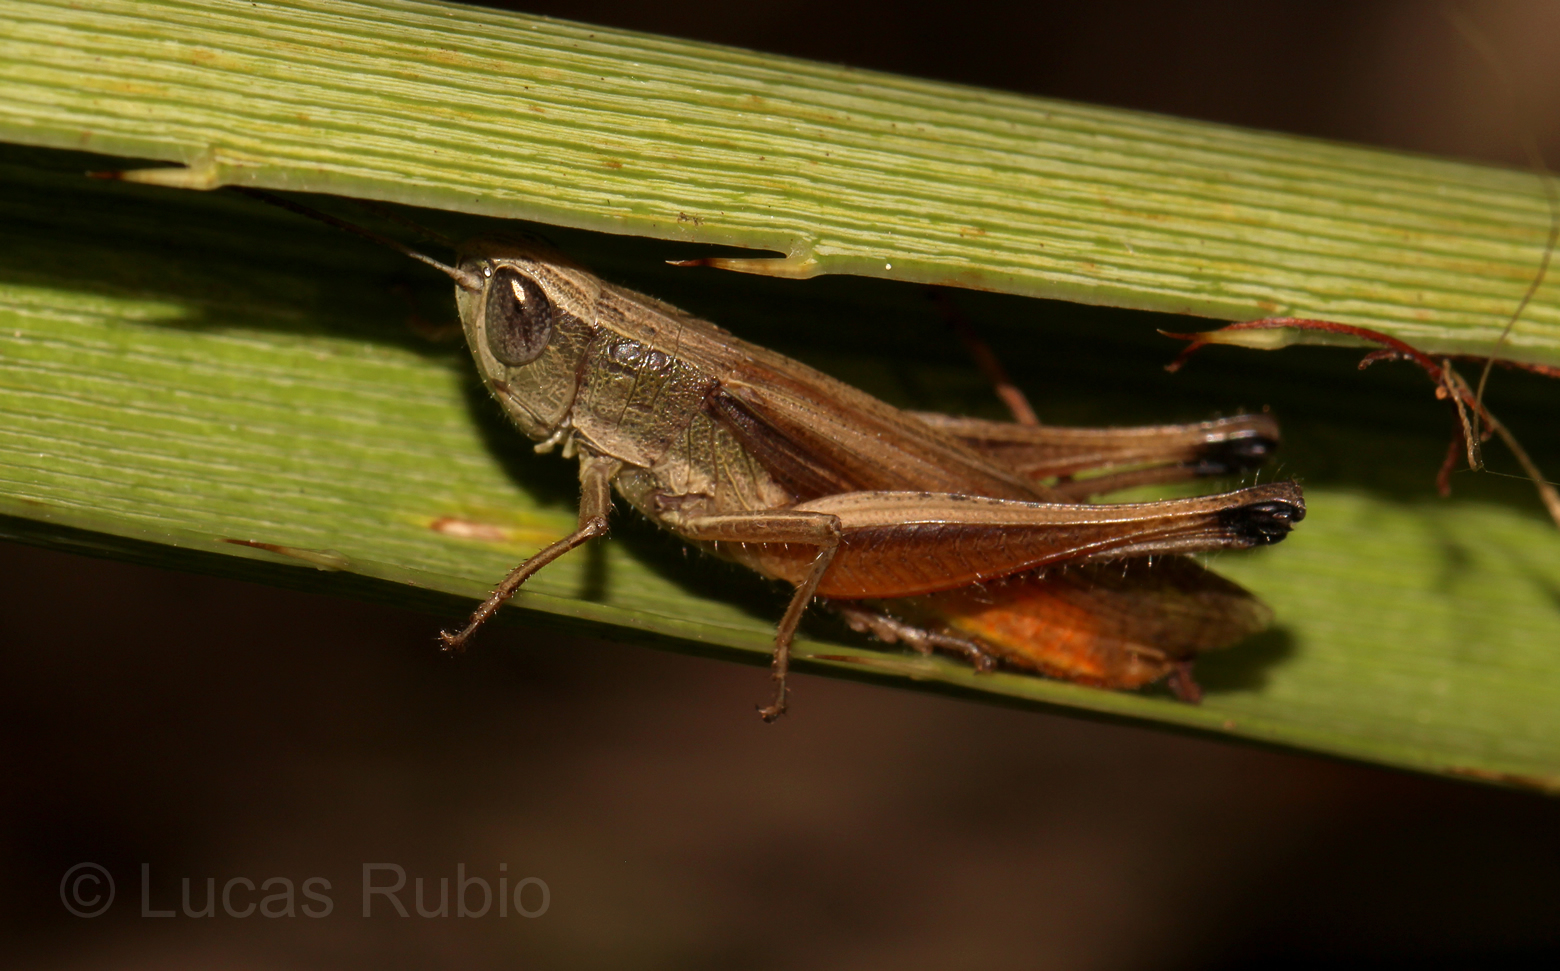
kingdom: Animalia
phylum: Arthropoda
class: Insecta
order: Orthoptera
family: Acrididae
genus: Amblytropidia
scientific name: Amblytropidia australis
